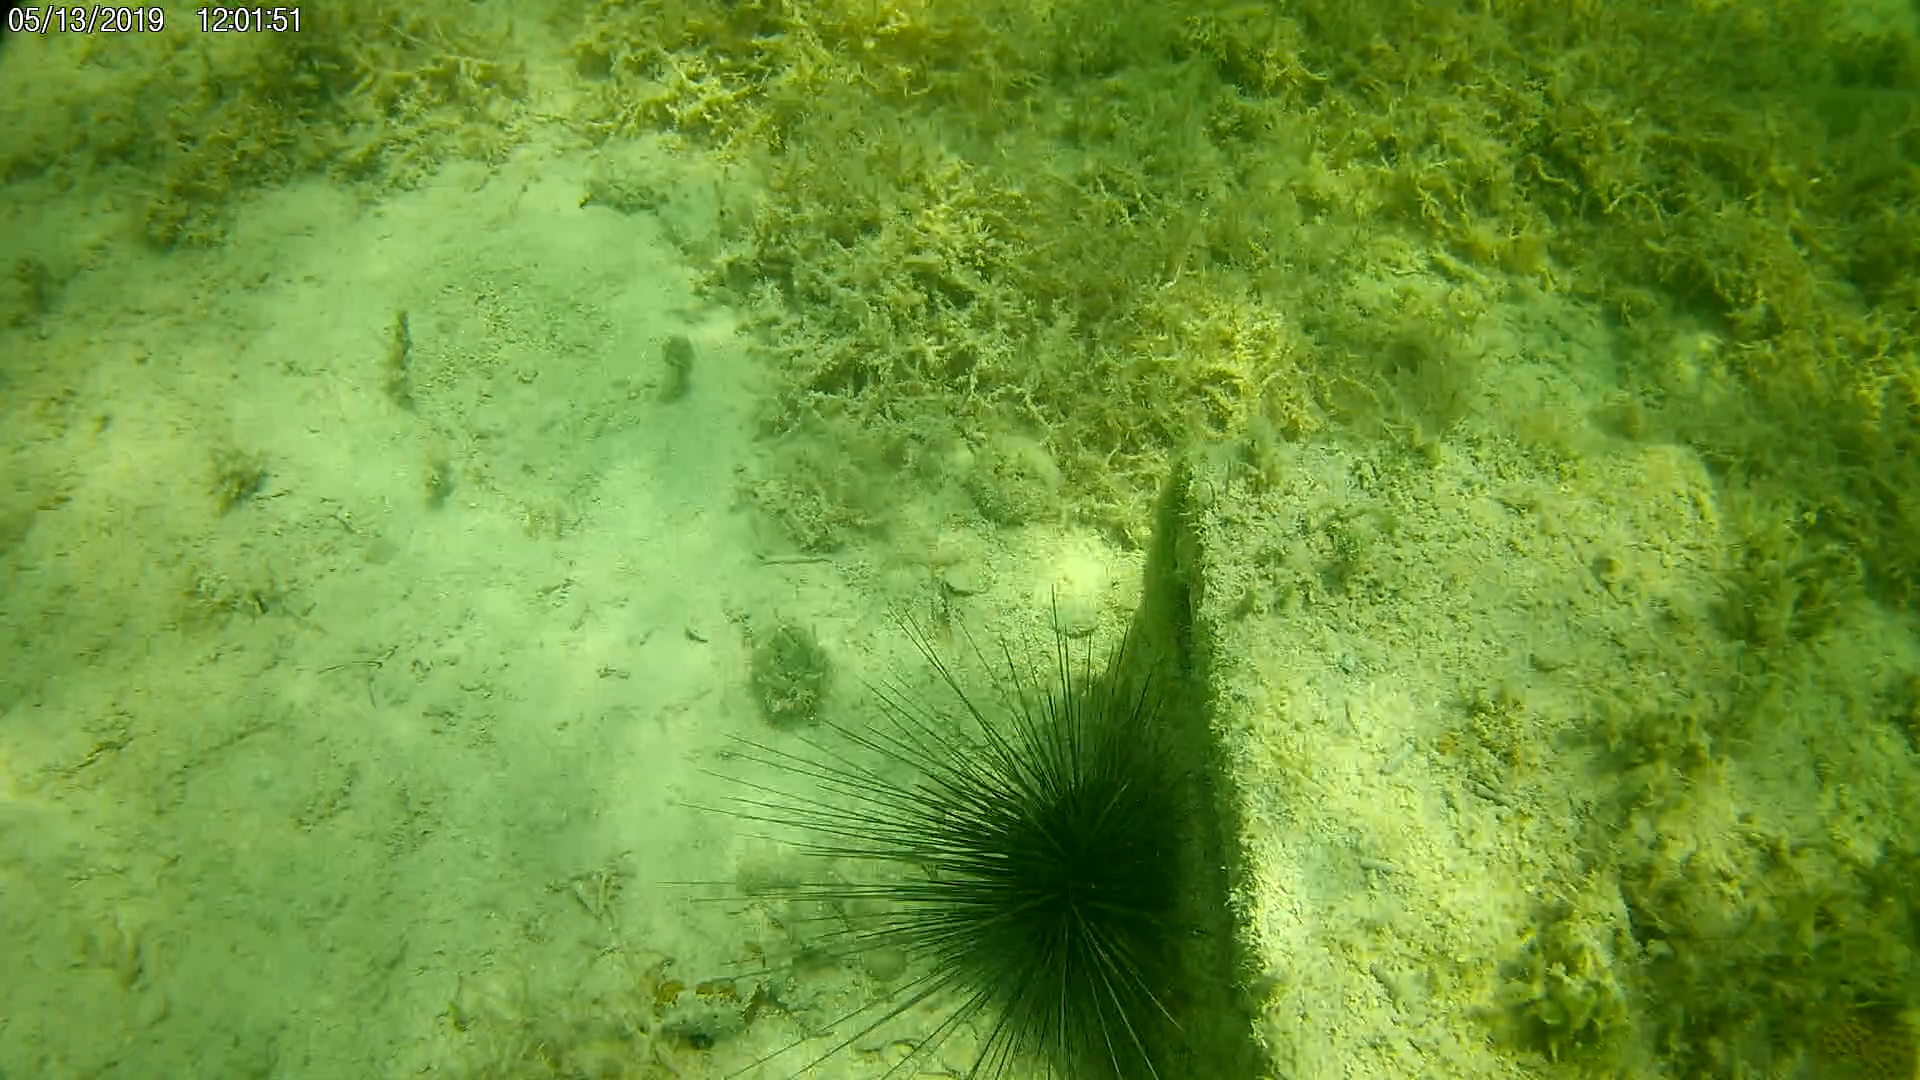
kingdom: Animalia
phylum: Echinodermata
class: Echinoidea
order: Diadematoida
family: Diadematidae
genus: Diadema
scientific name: Diadema antillarum
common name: Spiny urchin
